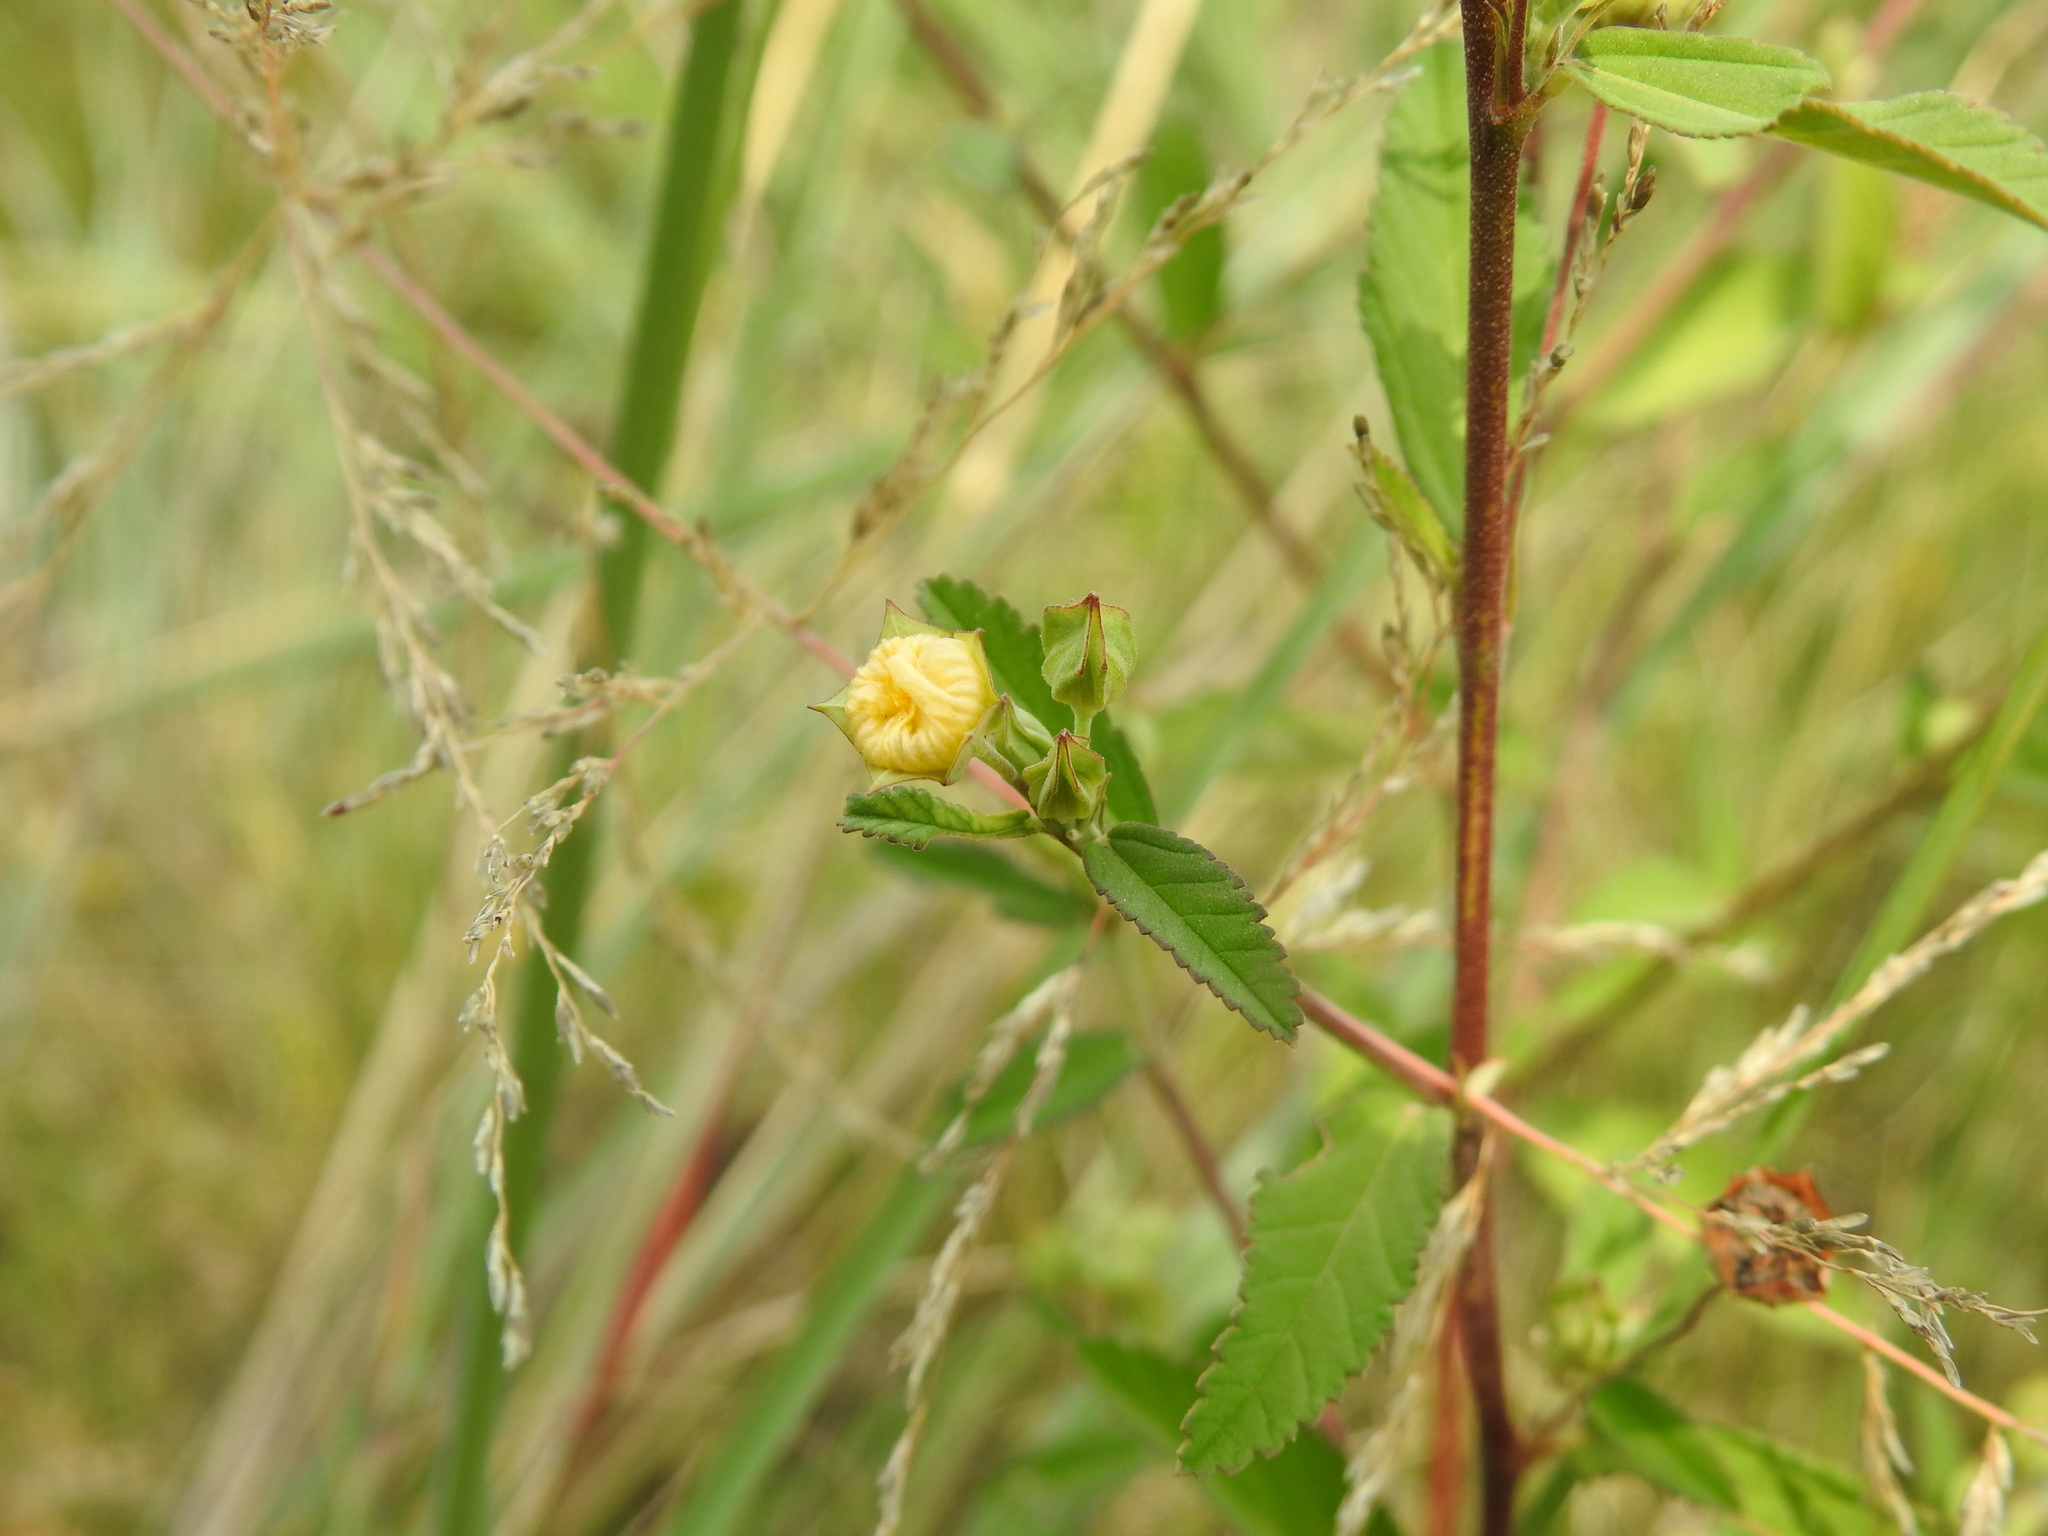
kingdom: Plantae
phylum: Tracheophyta
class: Magnoliopsida
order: Malvales
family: Malvaceae
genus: Sida
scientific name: Sida rhombifolia
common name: Queensland-hemp
